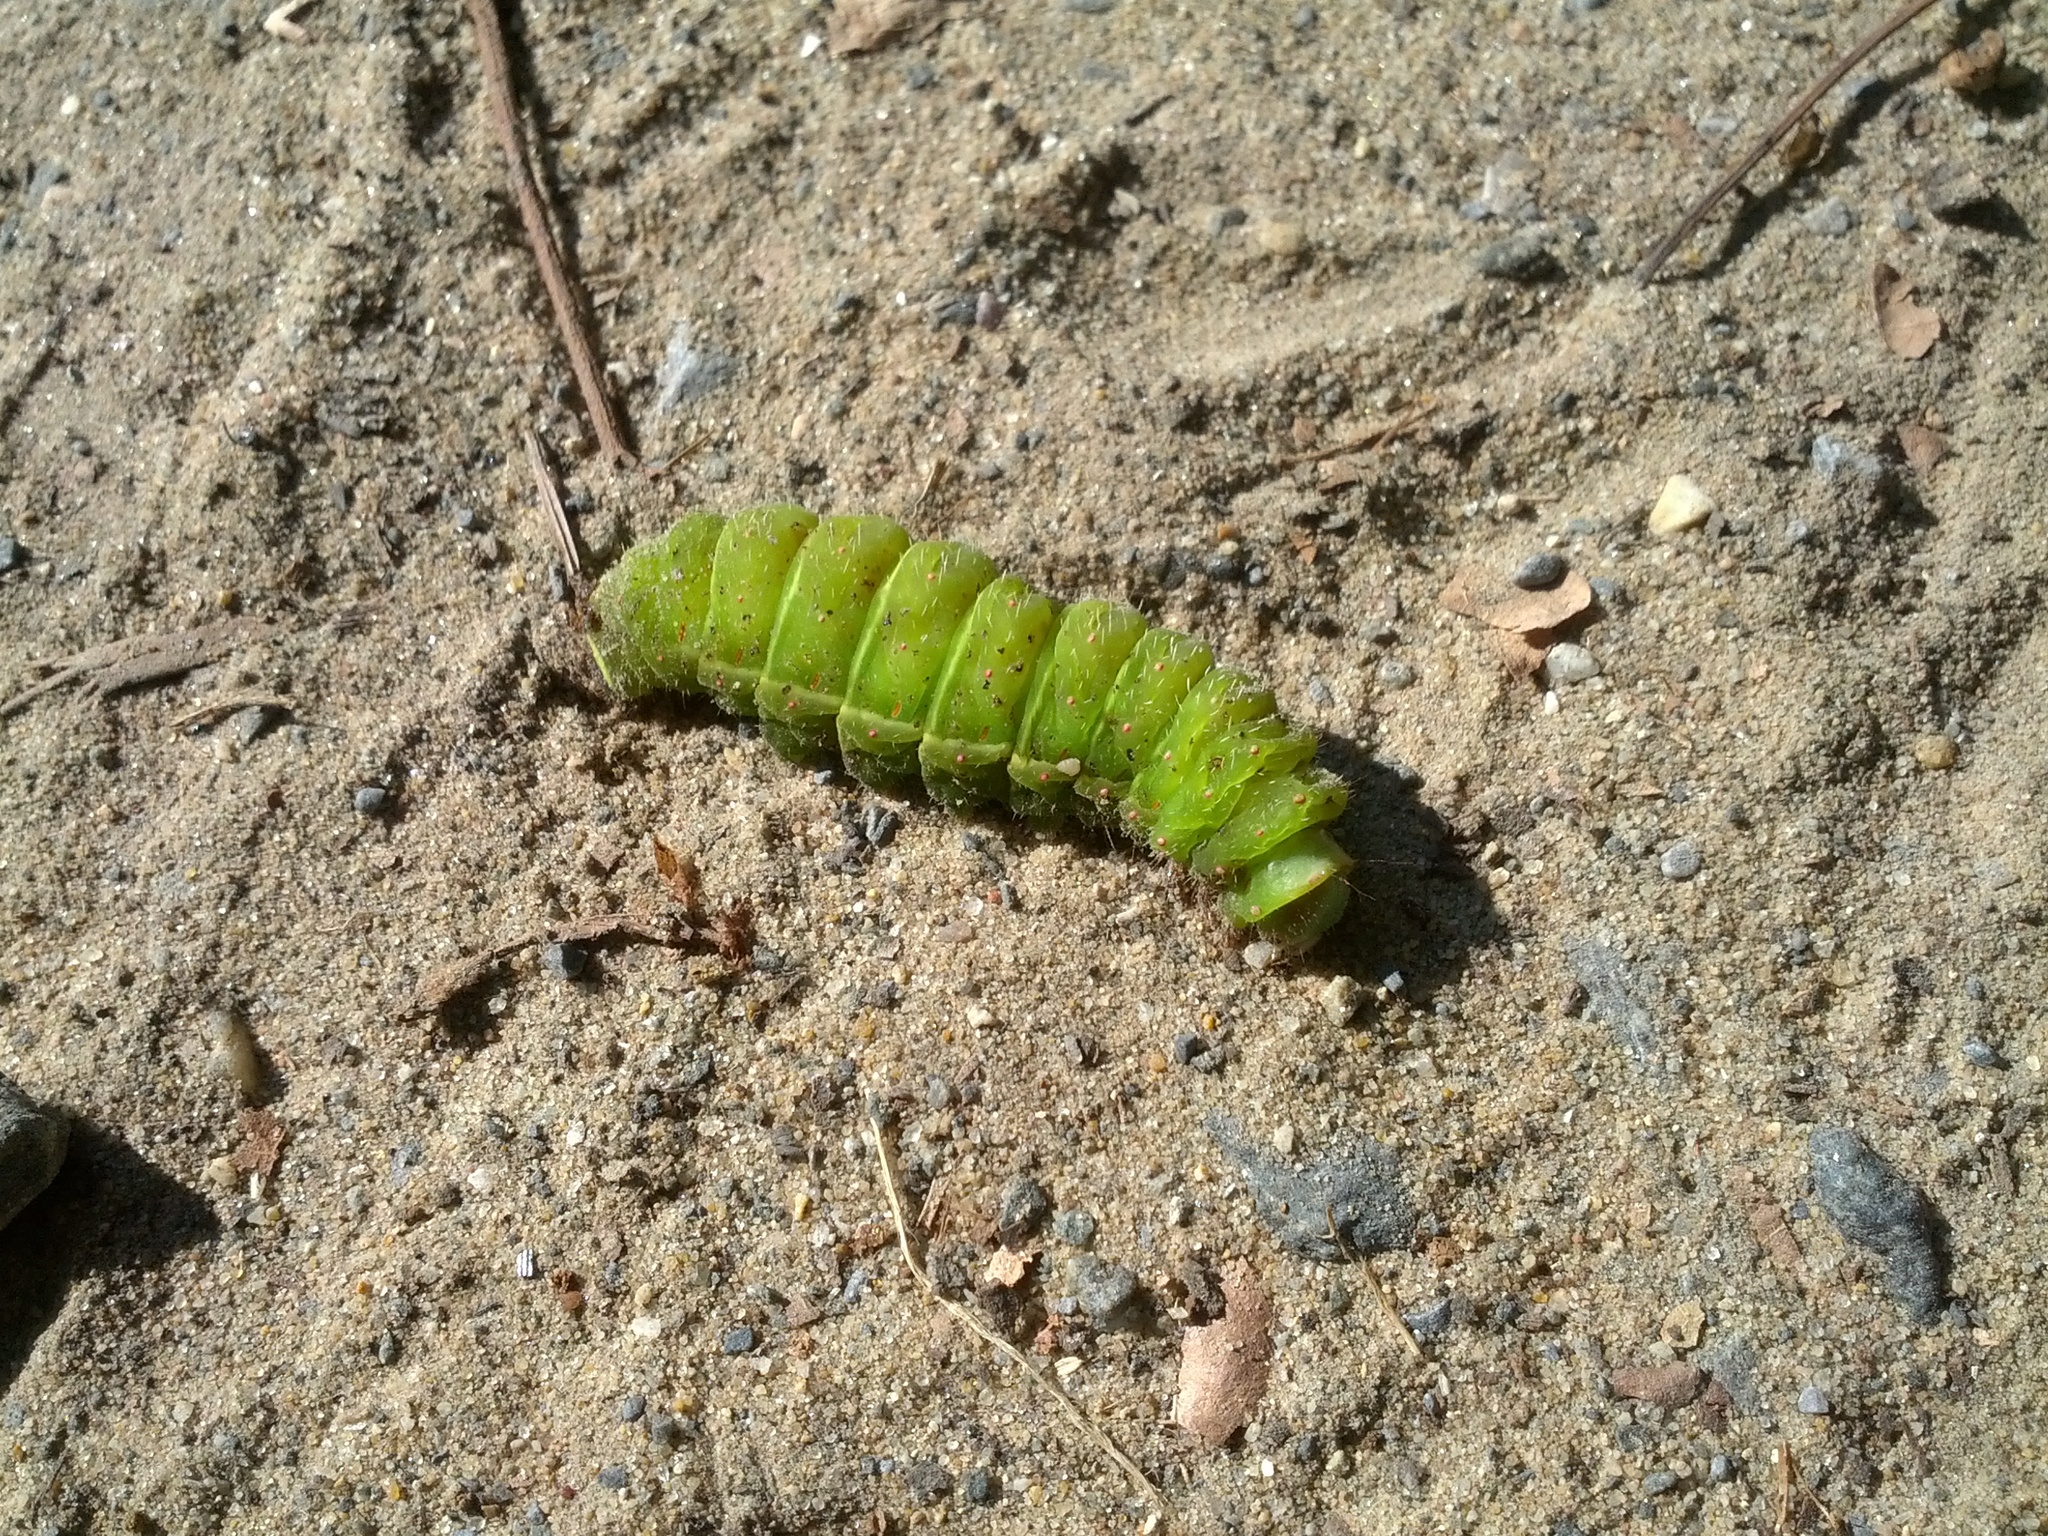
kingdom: Animalia
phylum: Arthropoda
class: Insecta
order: Lepidoptera
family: Saturniidae
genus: Actias
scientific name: Actias luna
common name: Luna moth
